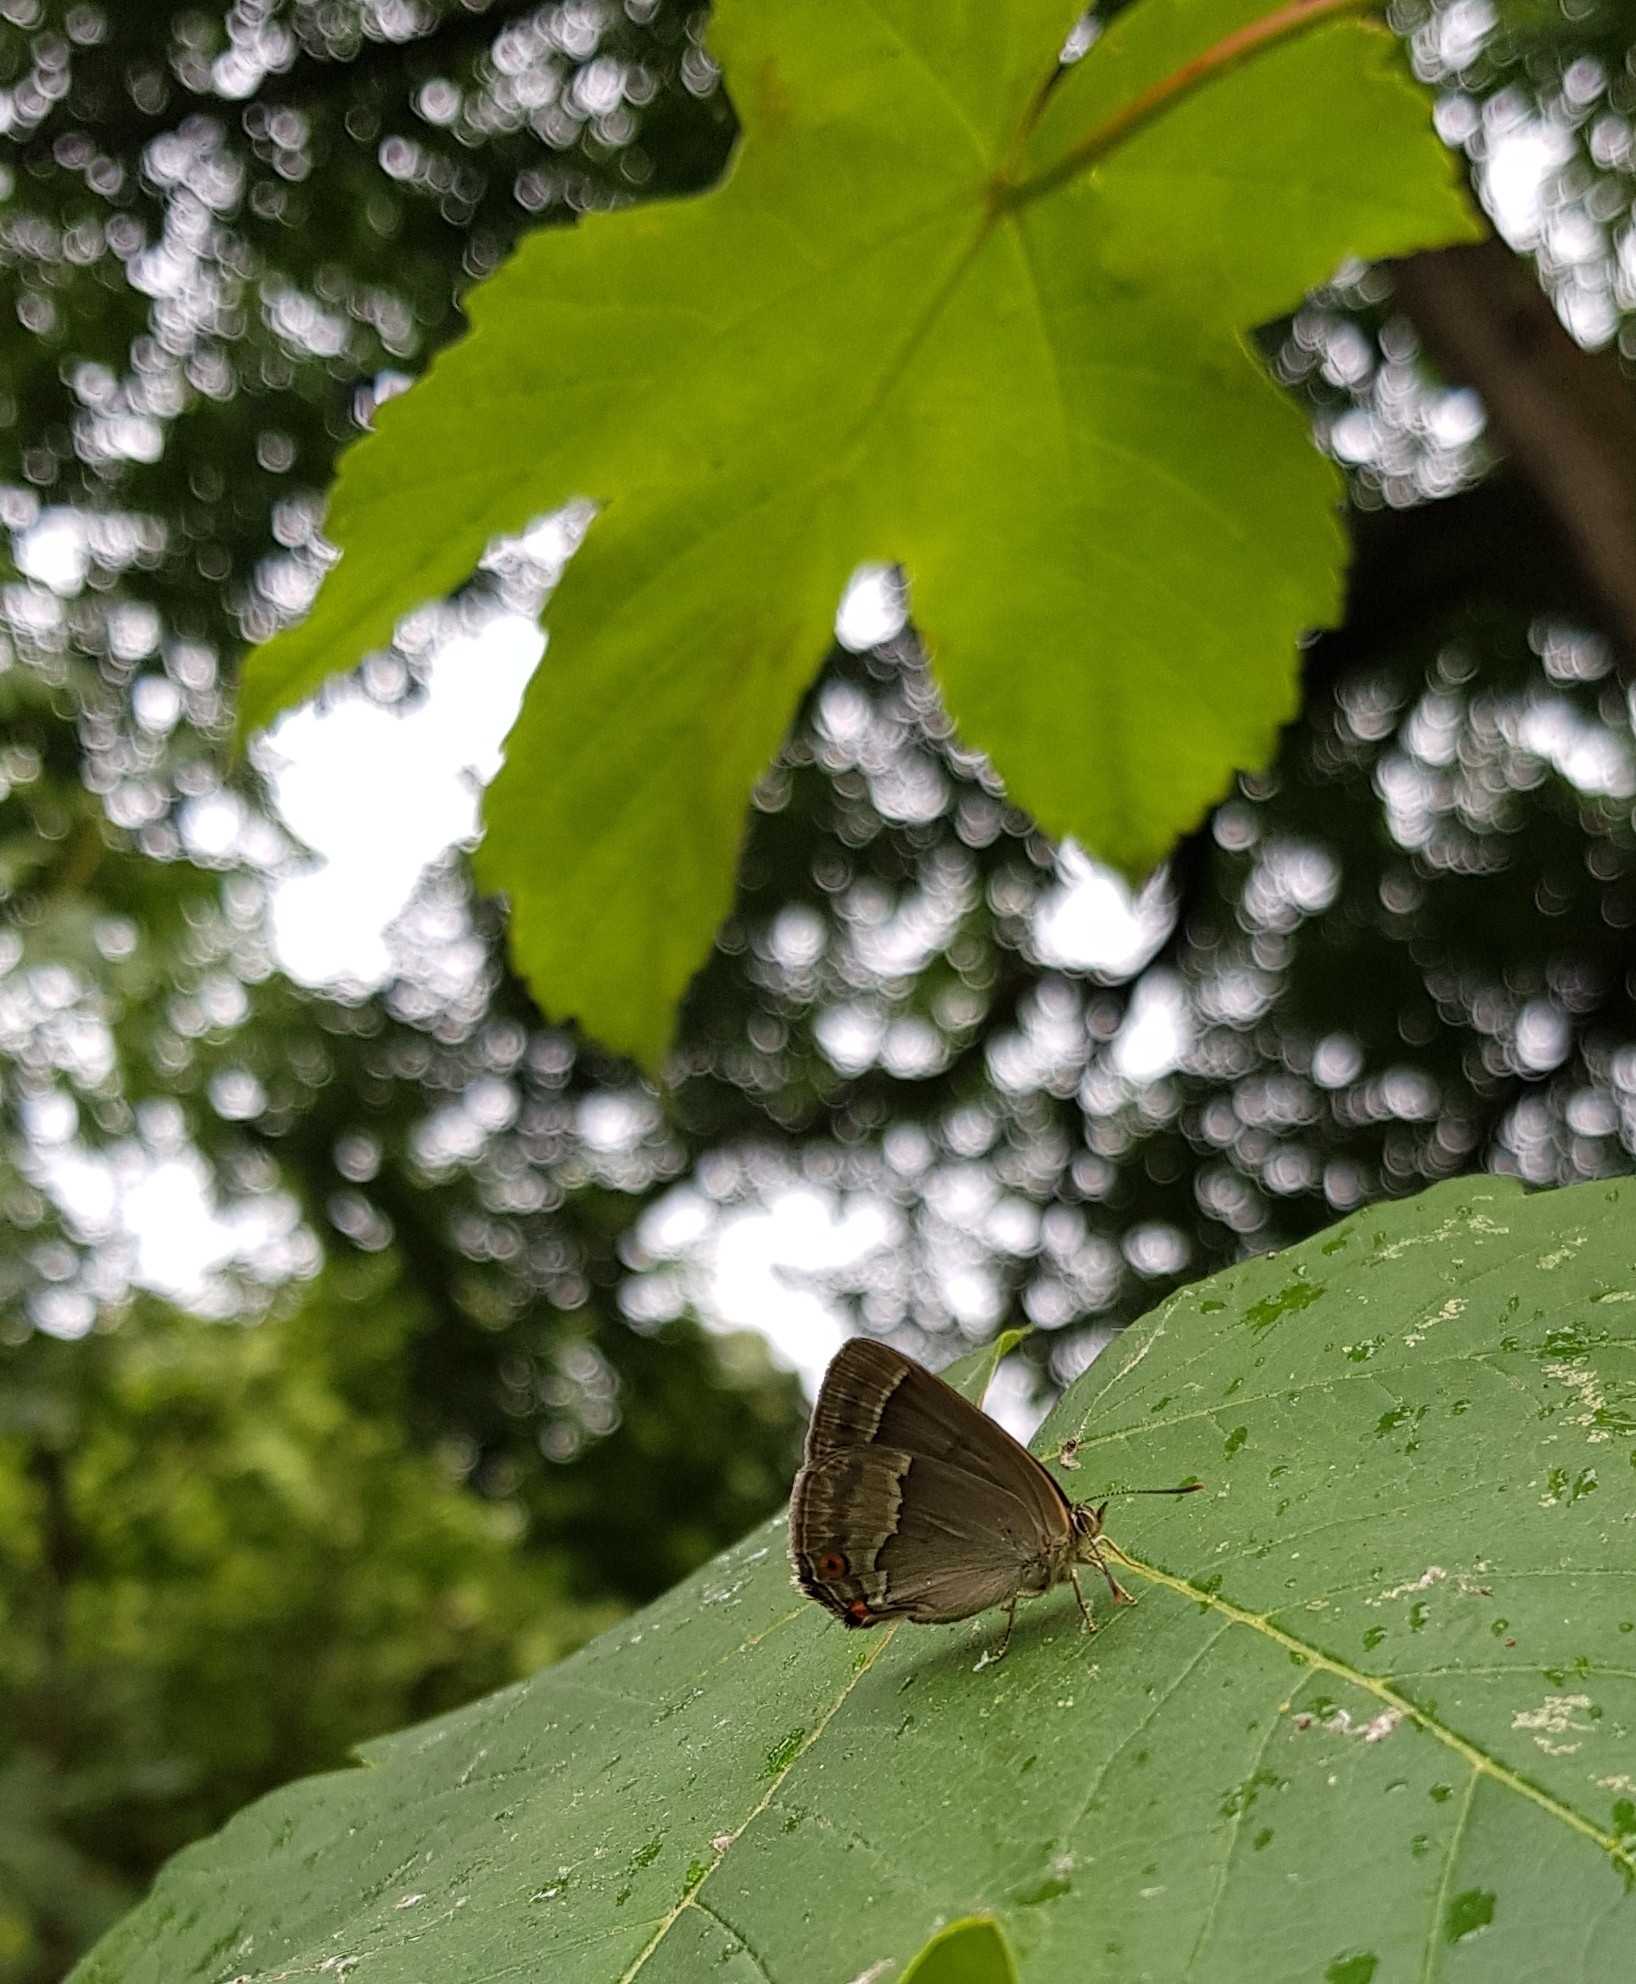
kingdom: Animalia
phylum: Arthropoda
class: Insecta
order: Lepidoptera
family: Lycaenidae
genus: Quercusia
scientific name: Quercusia quercus
